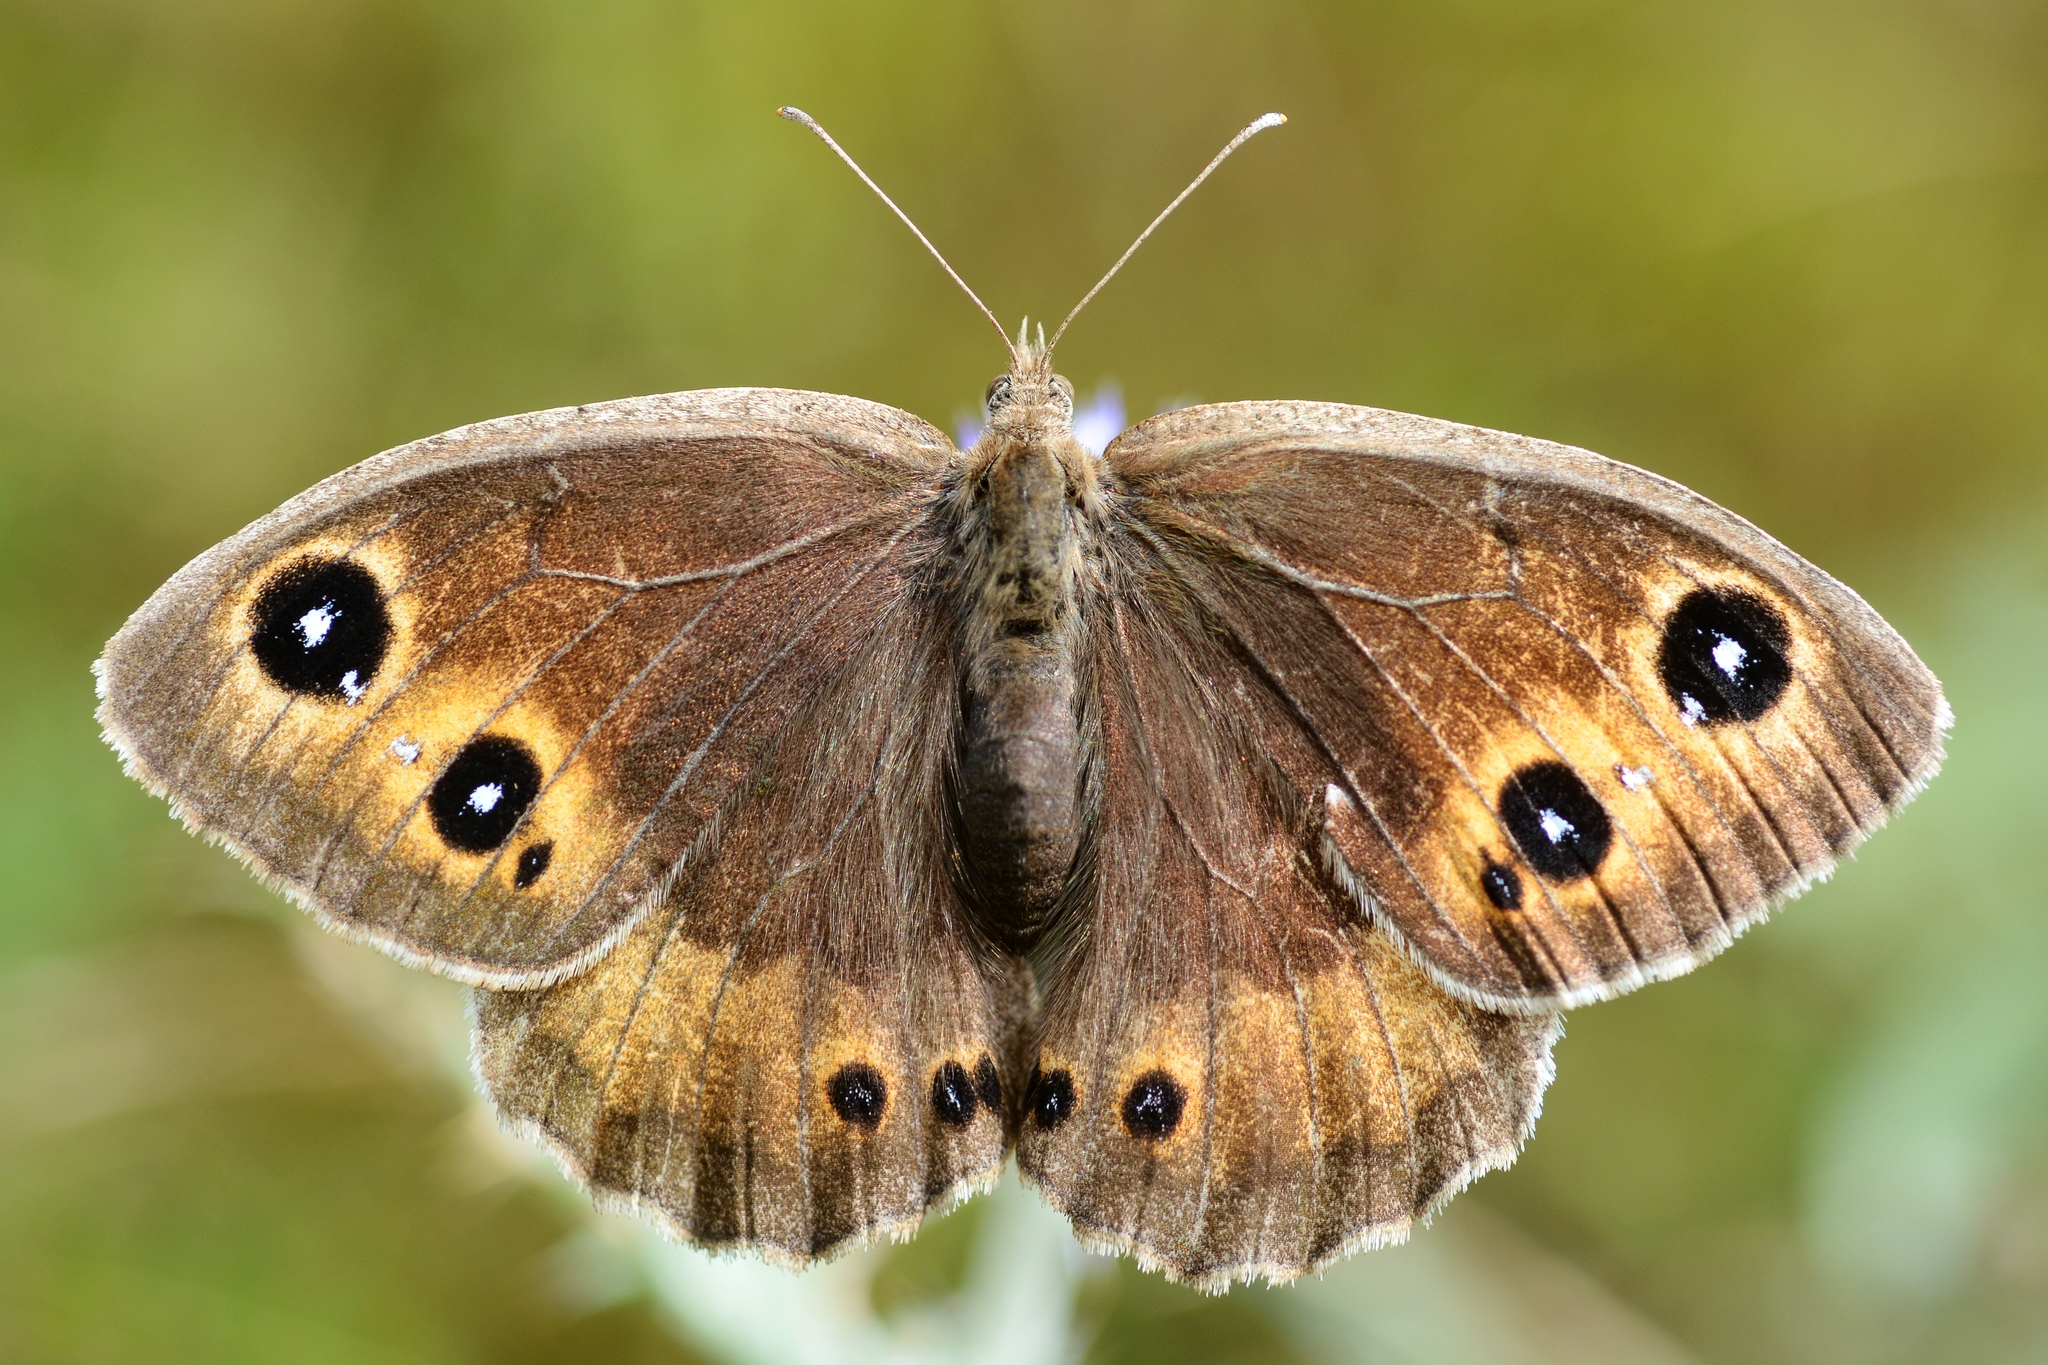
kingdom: Animalia
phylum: Arthropoda
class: Insecta
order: Lepidoptera
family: Nymphalidae
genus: Satyrus
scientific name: Satyrus ferula
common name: Great sooty satyr
